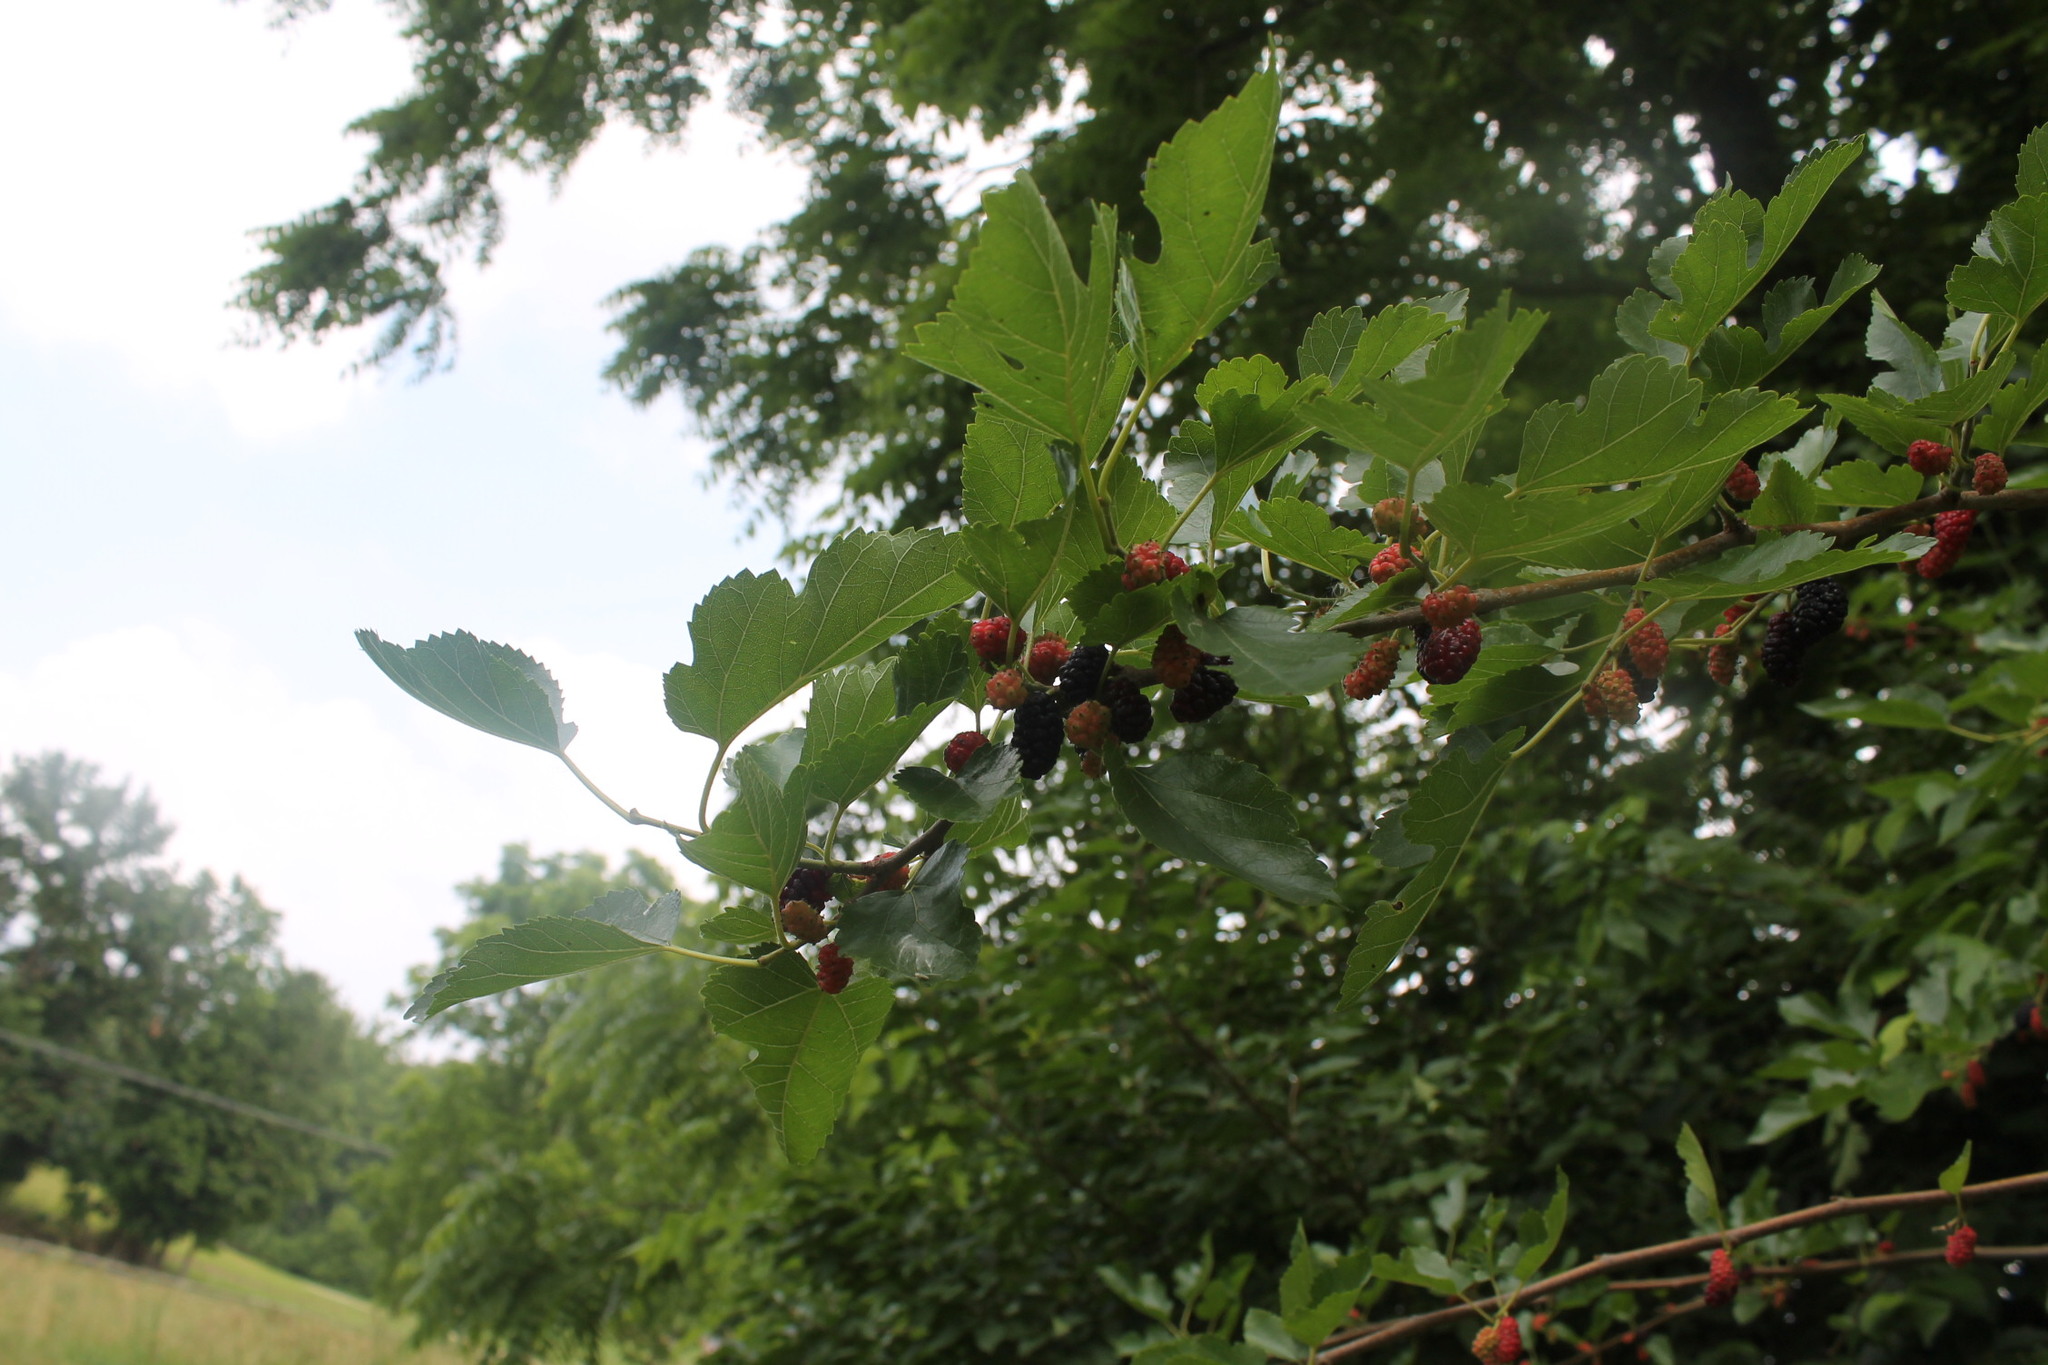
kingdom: Plantae
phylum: Tracheophyta
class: Magnoliopsida
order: Rosales
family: Moraceae
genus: Morus
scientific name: Morus alba
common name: White mulberry
